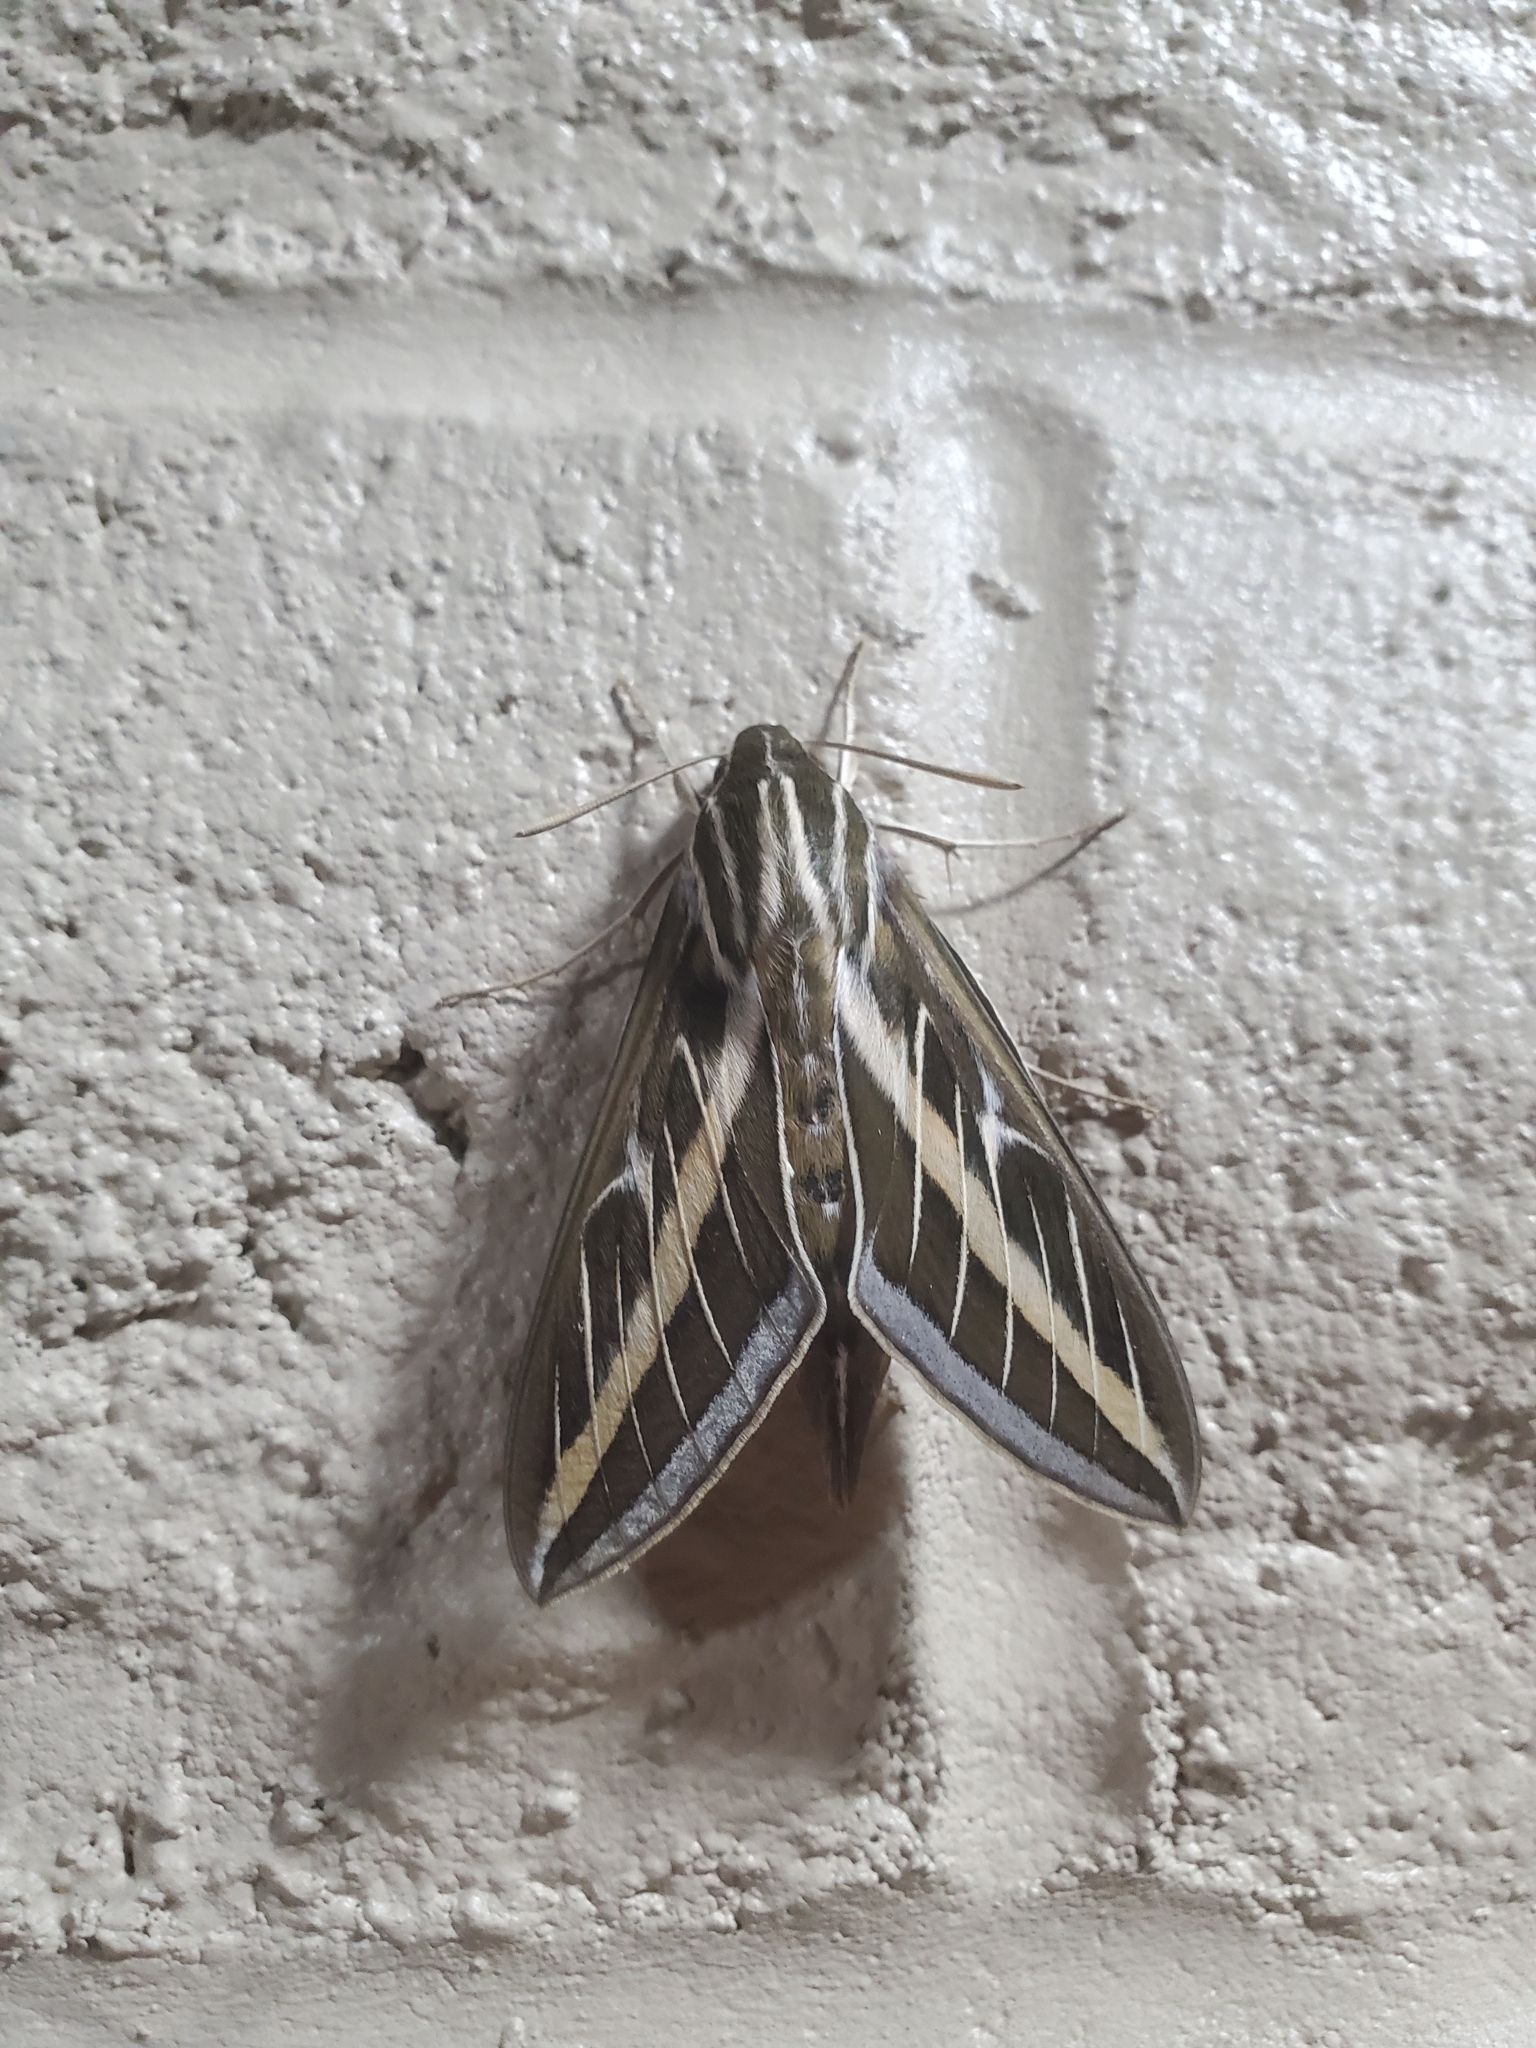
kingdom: Animalia
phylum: Arthropoda
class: Insecta
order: Lepidoptera
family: Sphingidae
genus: Hyles
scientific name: Hyles lineata
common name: White-lined sphinx
